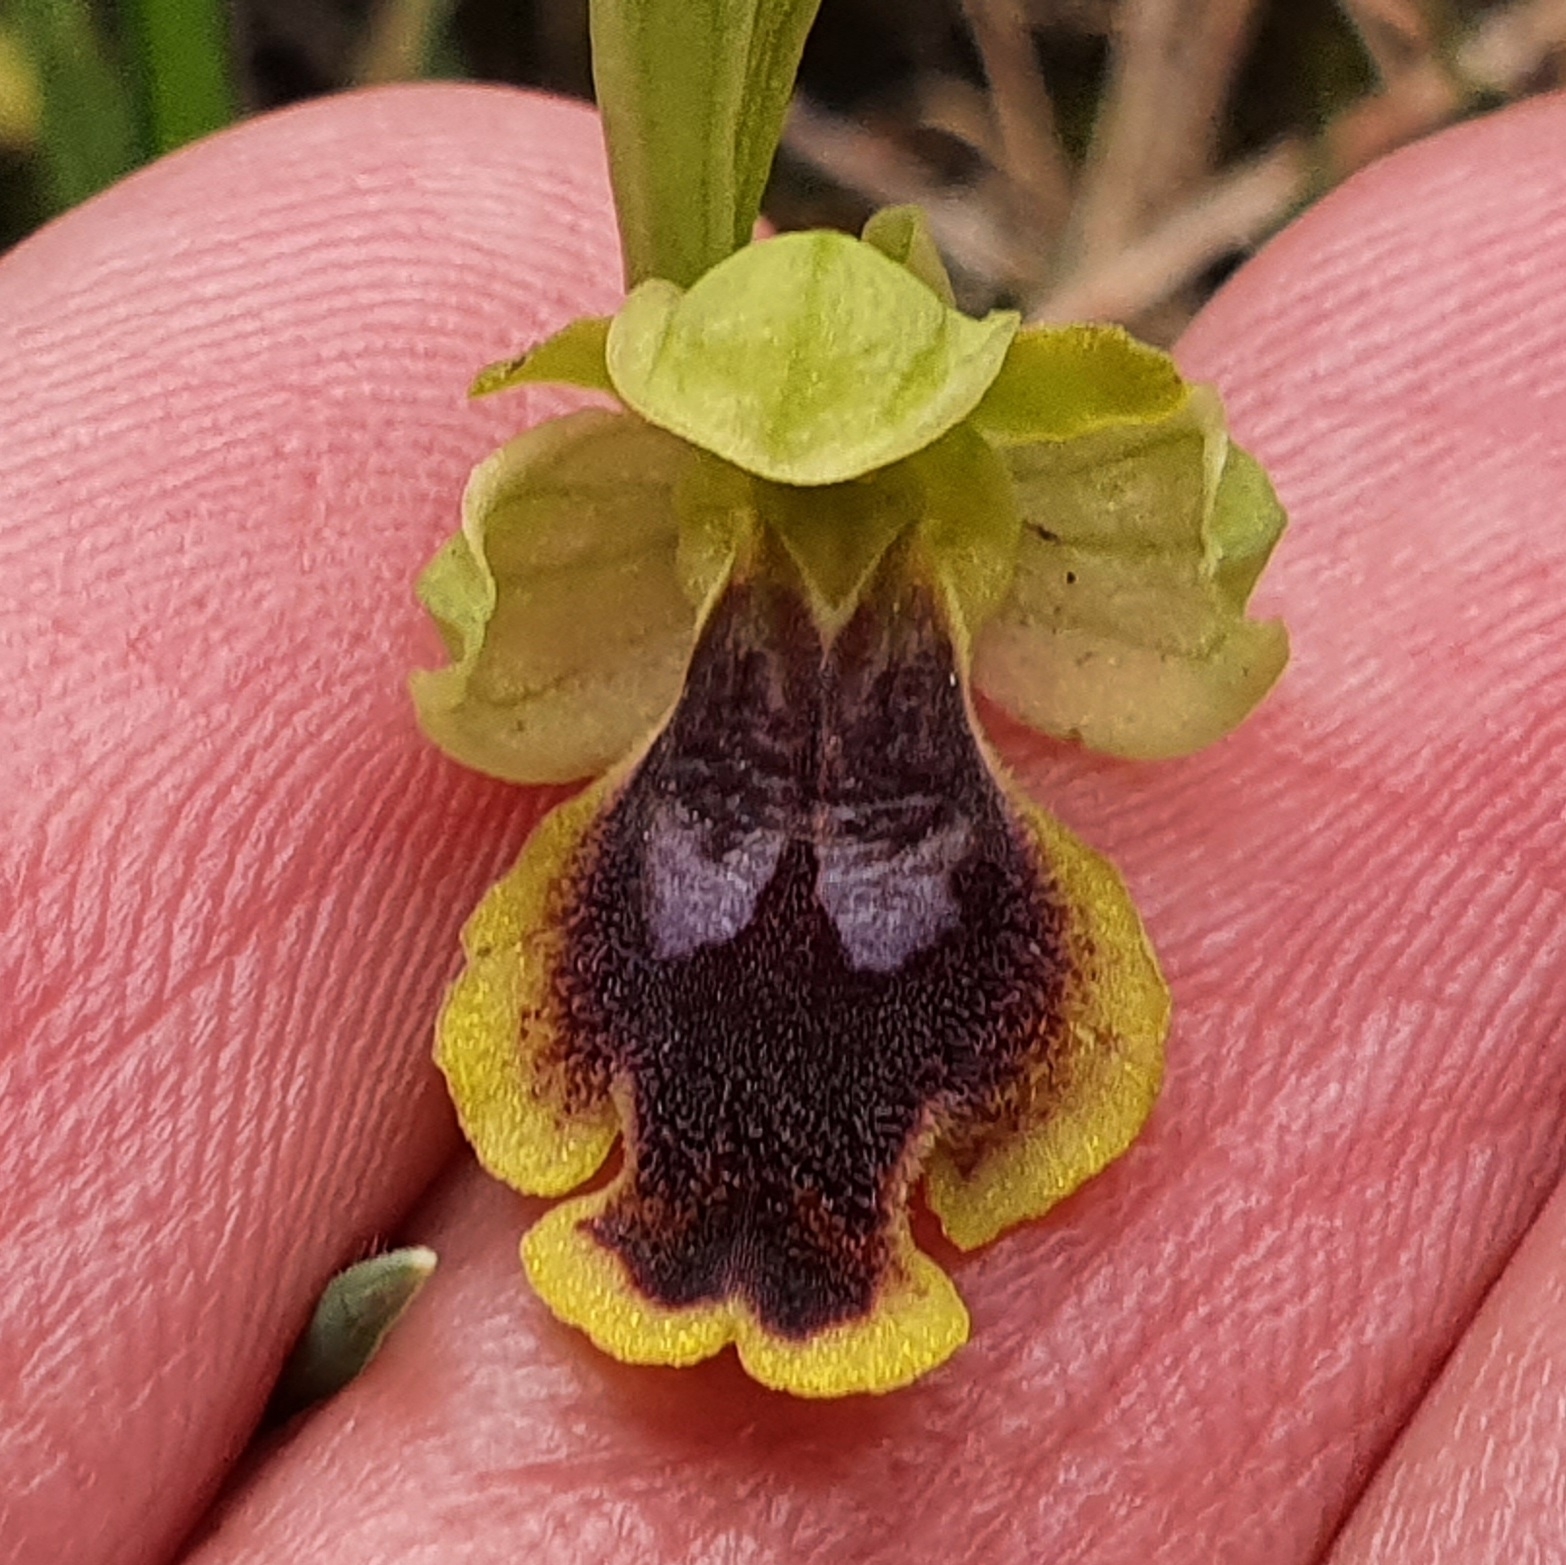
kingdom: Plantae
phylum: Tracheophyta
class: Liliopsida
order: Asparagales
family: Orchidaceae
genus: Ophrys
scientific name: Ophrys battandieri
